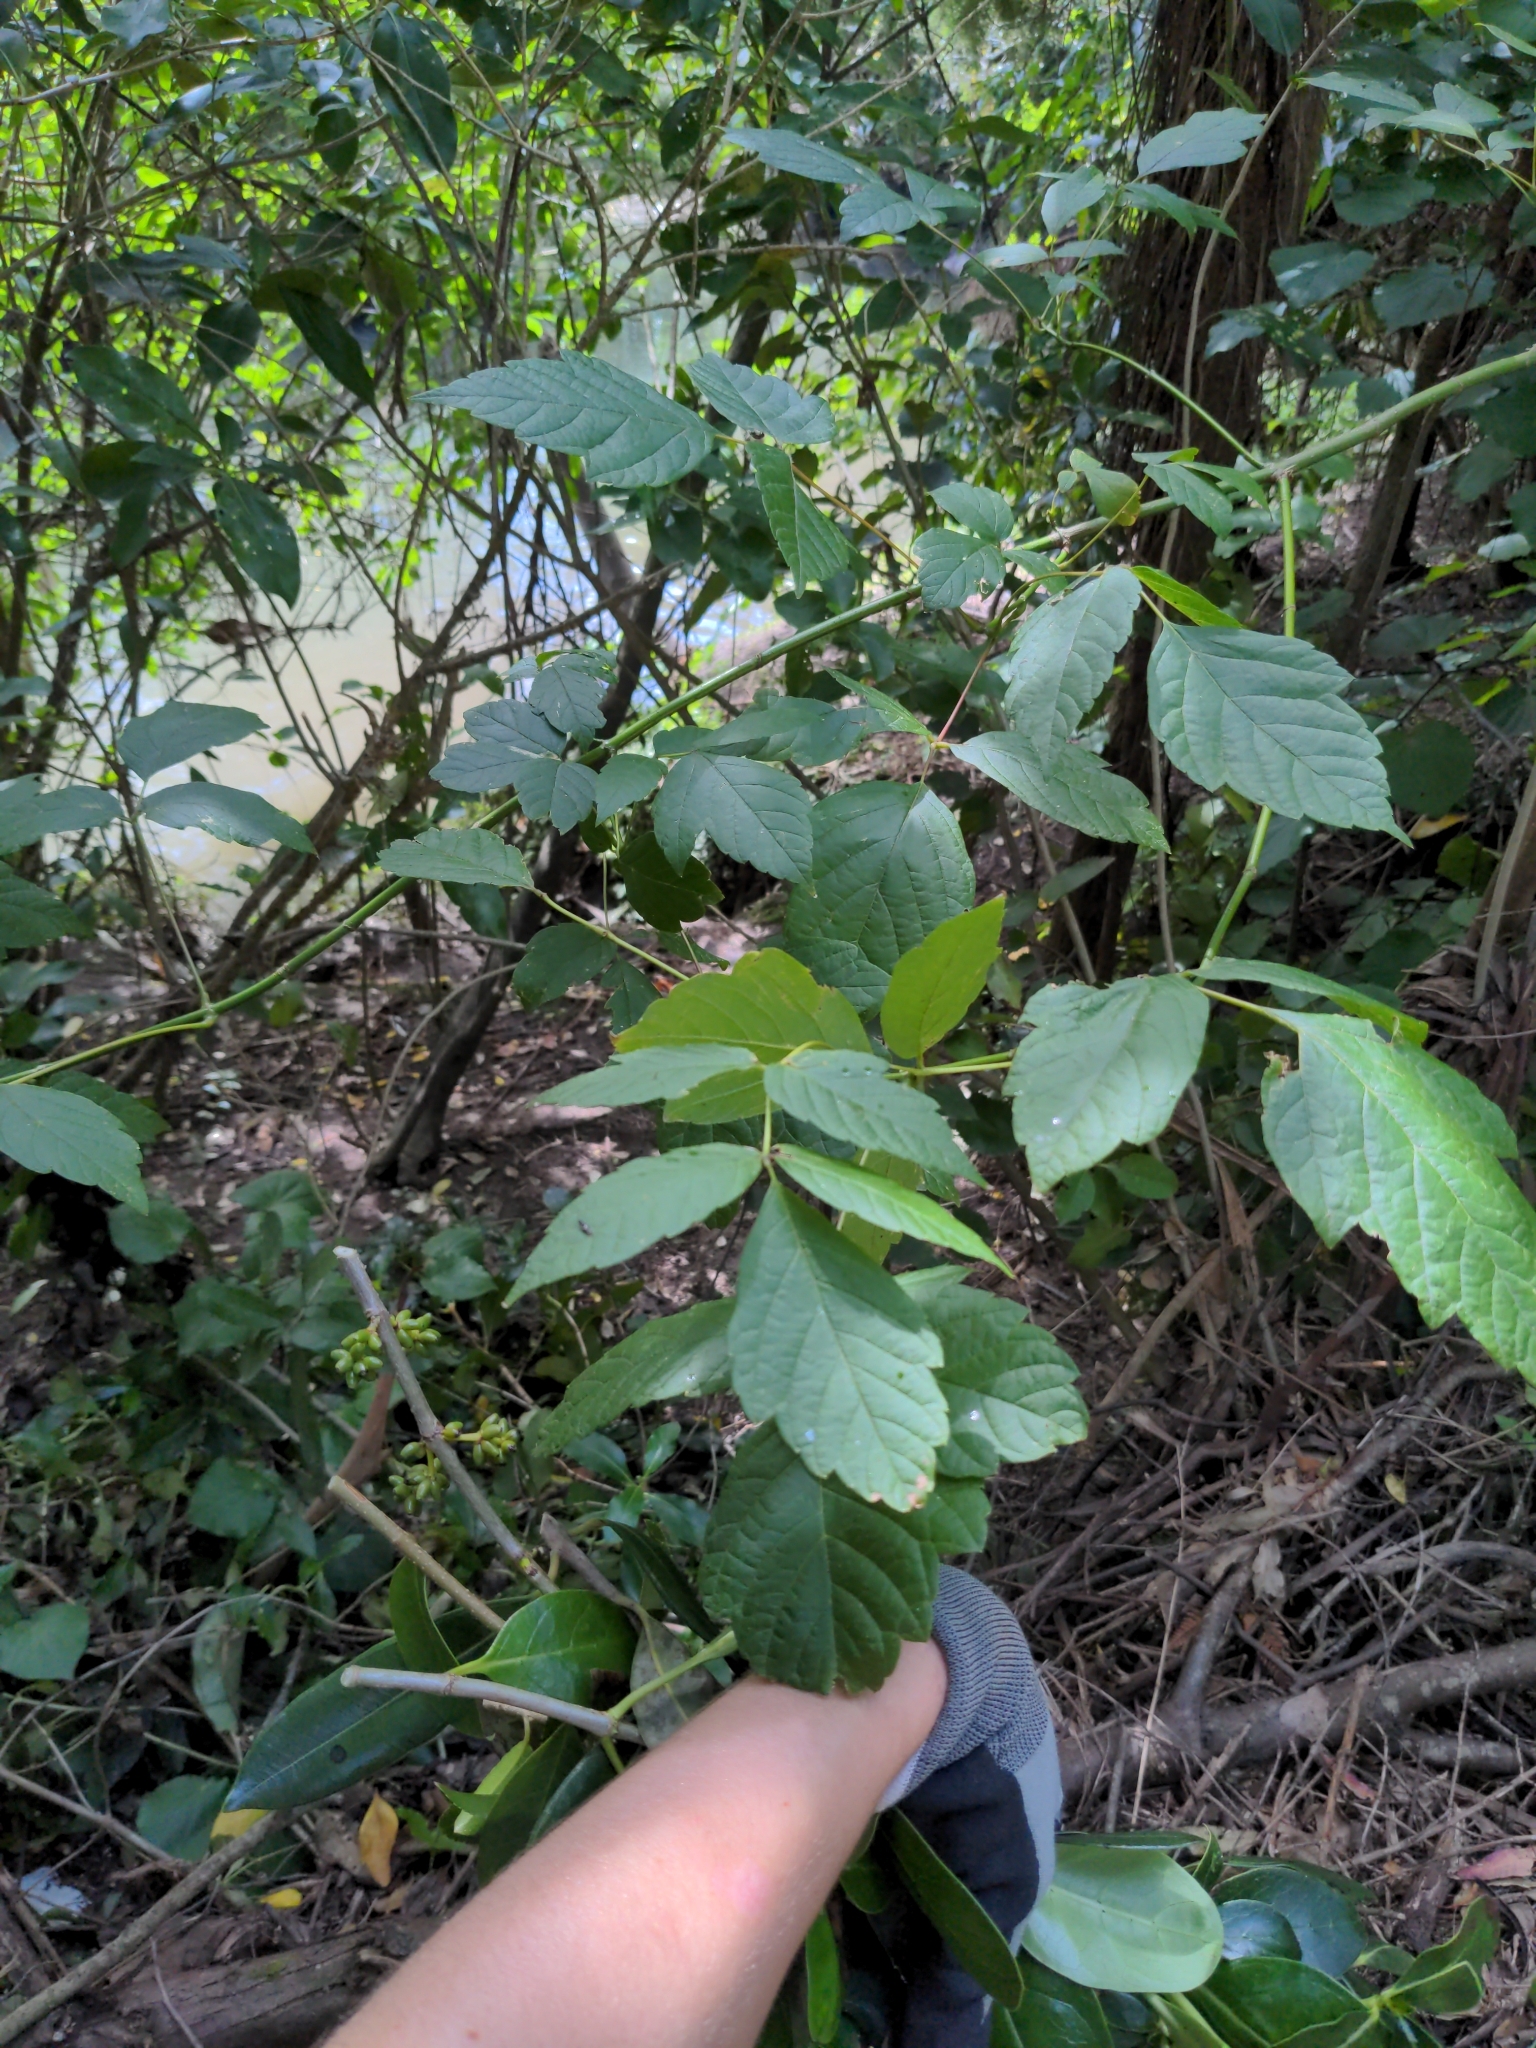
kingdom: Plantae
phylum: Tracheophyta
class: Magnoliopsida
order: Sapindales
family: Sapindaceae
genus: Acer
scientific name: Acer negundo
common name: Ashleaf maple
